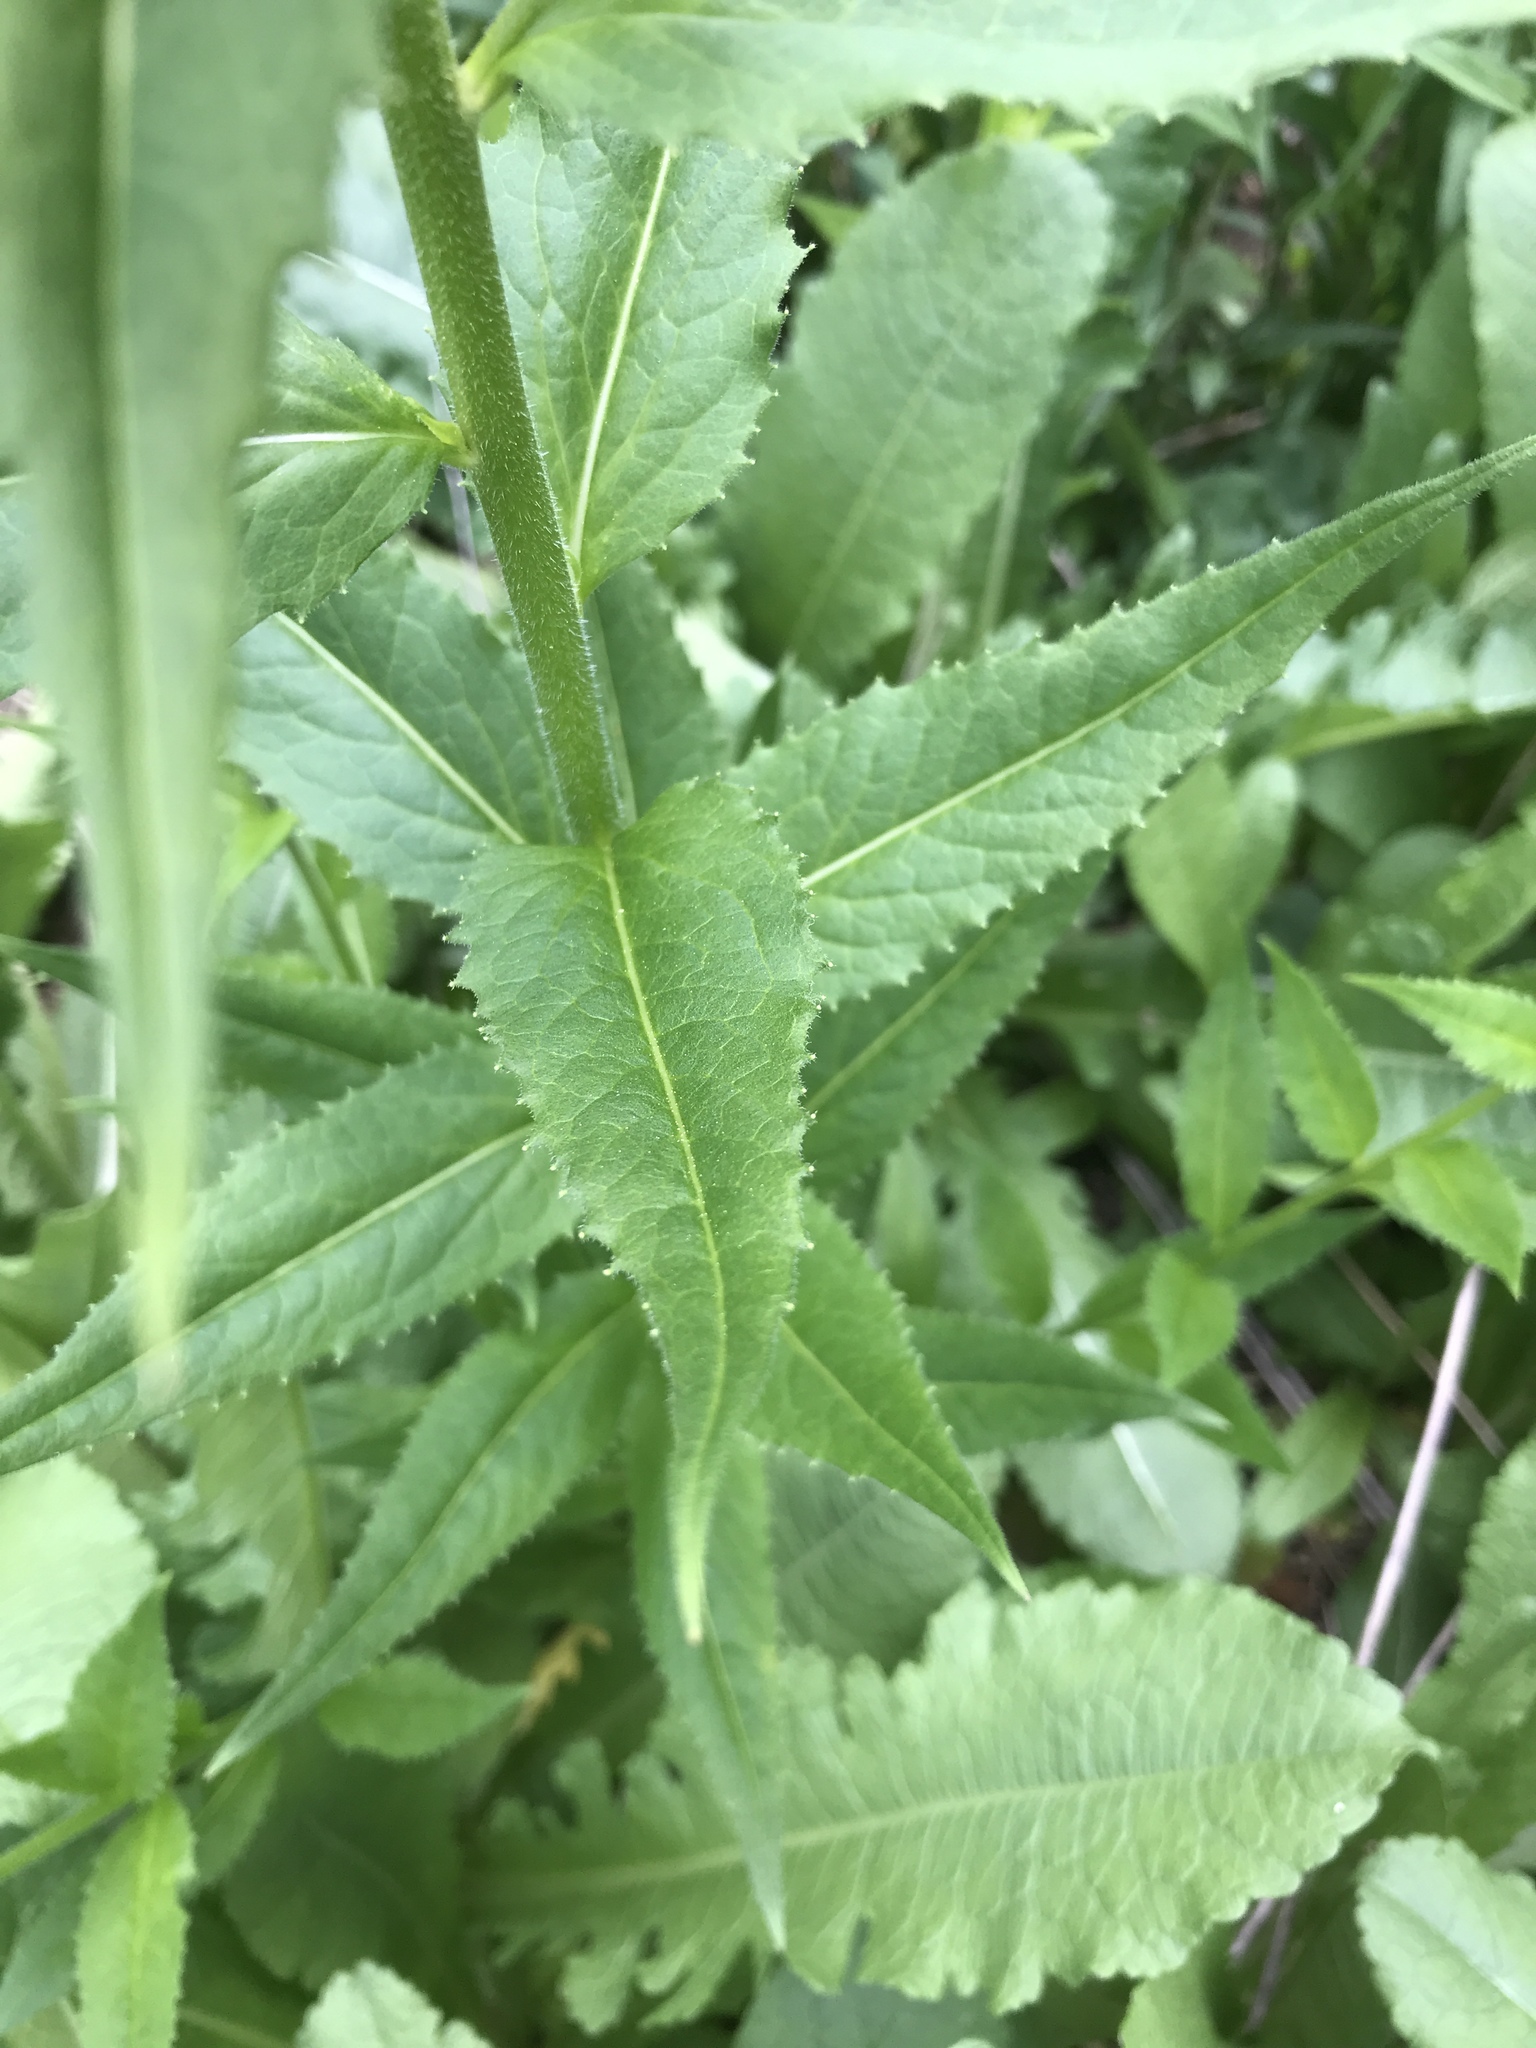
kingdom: Plantae
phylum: Tracheophyta
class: Magnoliopsida
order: Brassicales
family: Brassicaceae
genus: Hesperis
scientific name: Hesperis matronalis
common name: Dame's-violet
